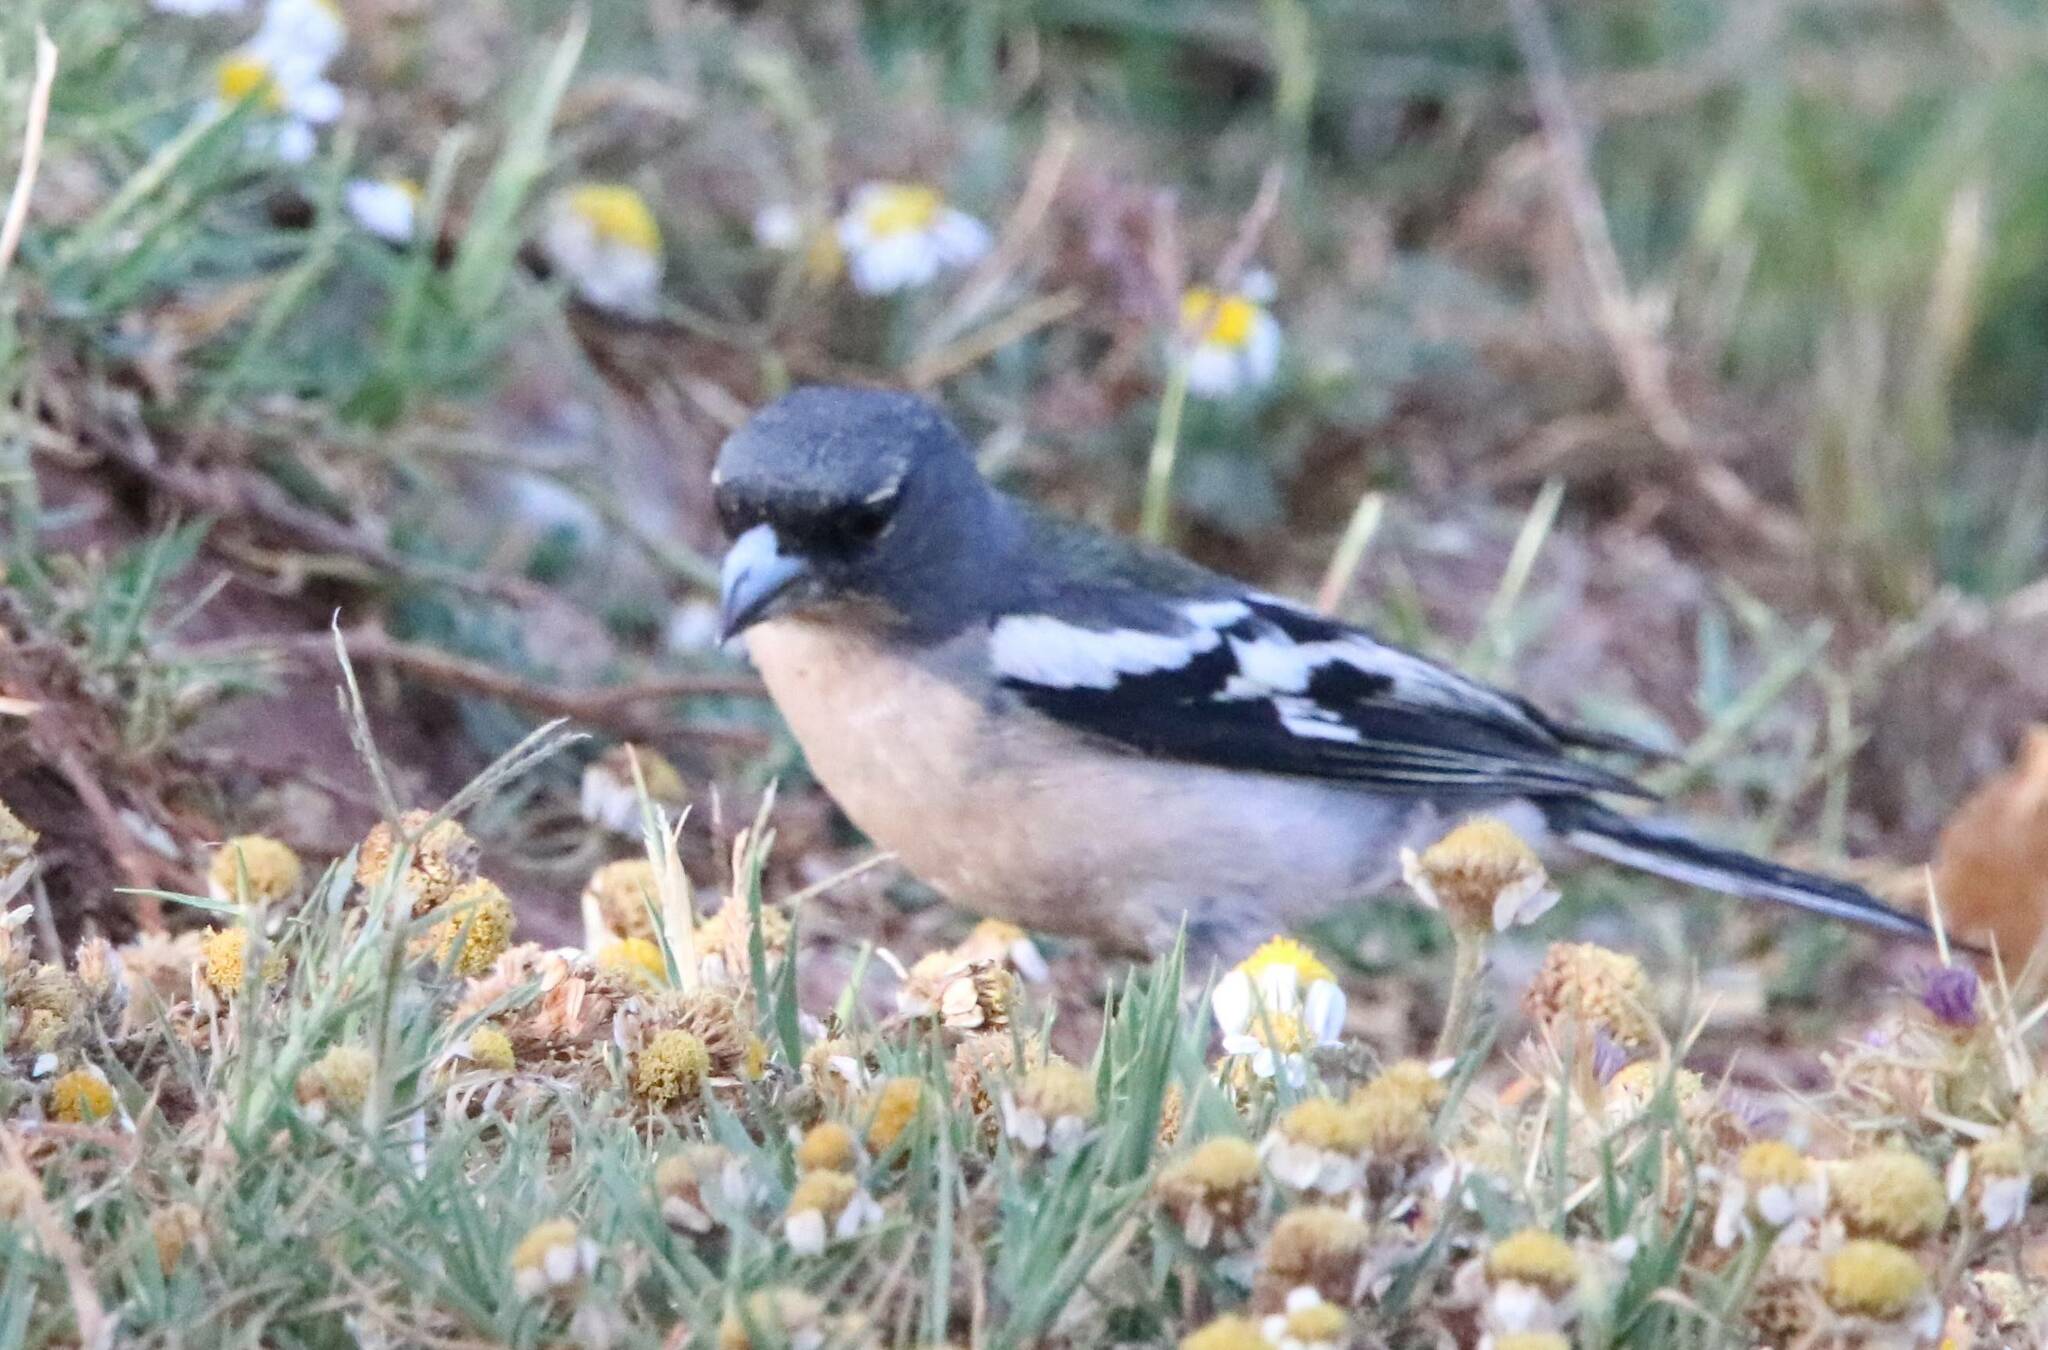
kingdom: Animalia
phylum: Chordata
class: Aves
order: Passeriformes
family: Fringillidae
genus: Fringilla
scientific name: Fringilla spodiogenys
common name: African chaffinch
